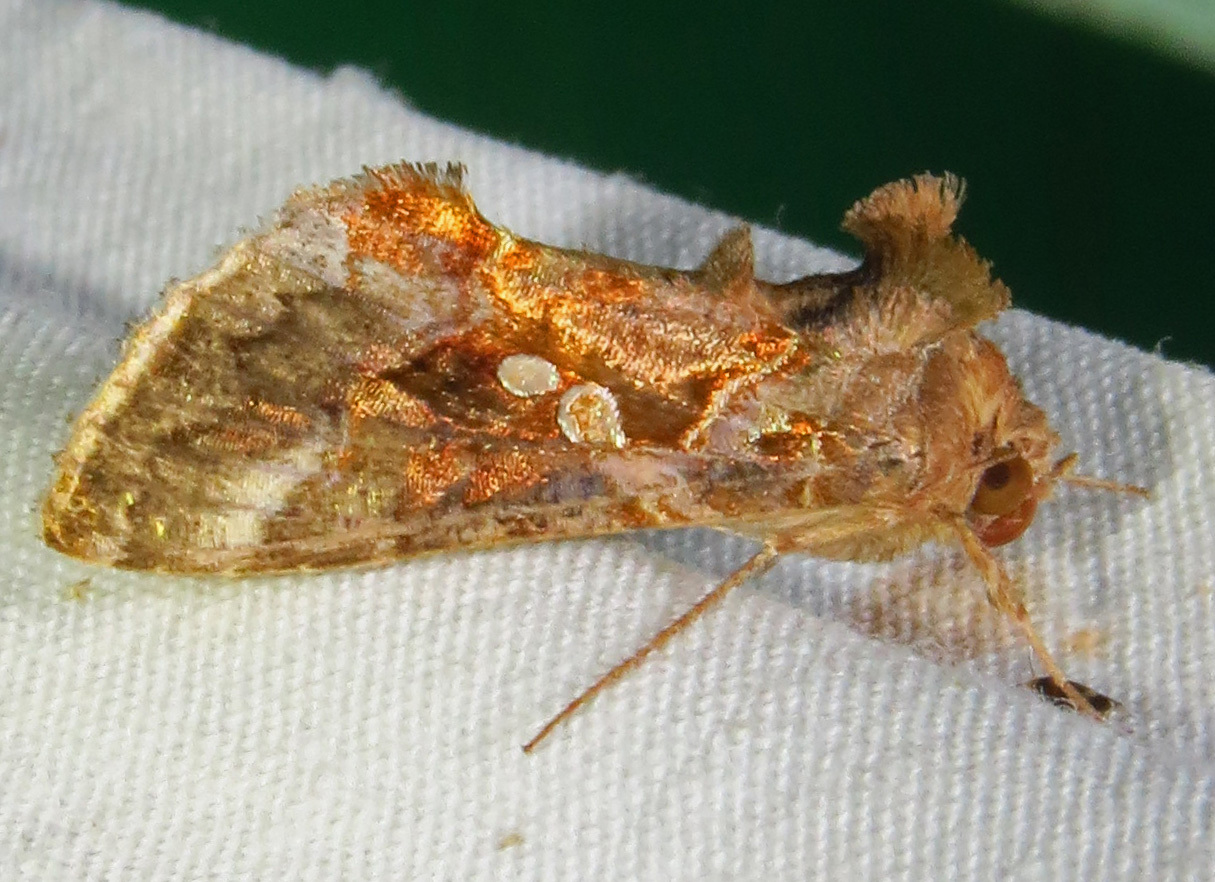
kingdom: Animalia
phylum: Arthropoda
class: Insecta
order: Lepidoptera
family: Noctuidae
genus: Chrysodeixis
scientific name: Chrysodeixis includens
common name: Cutworm moth
